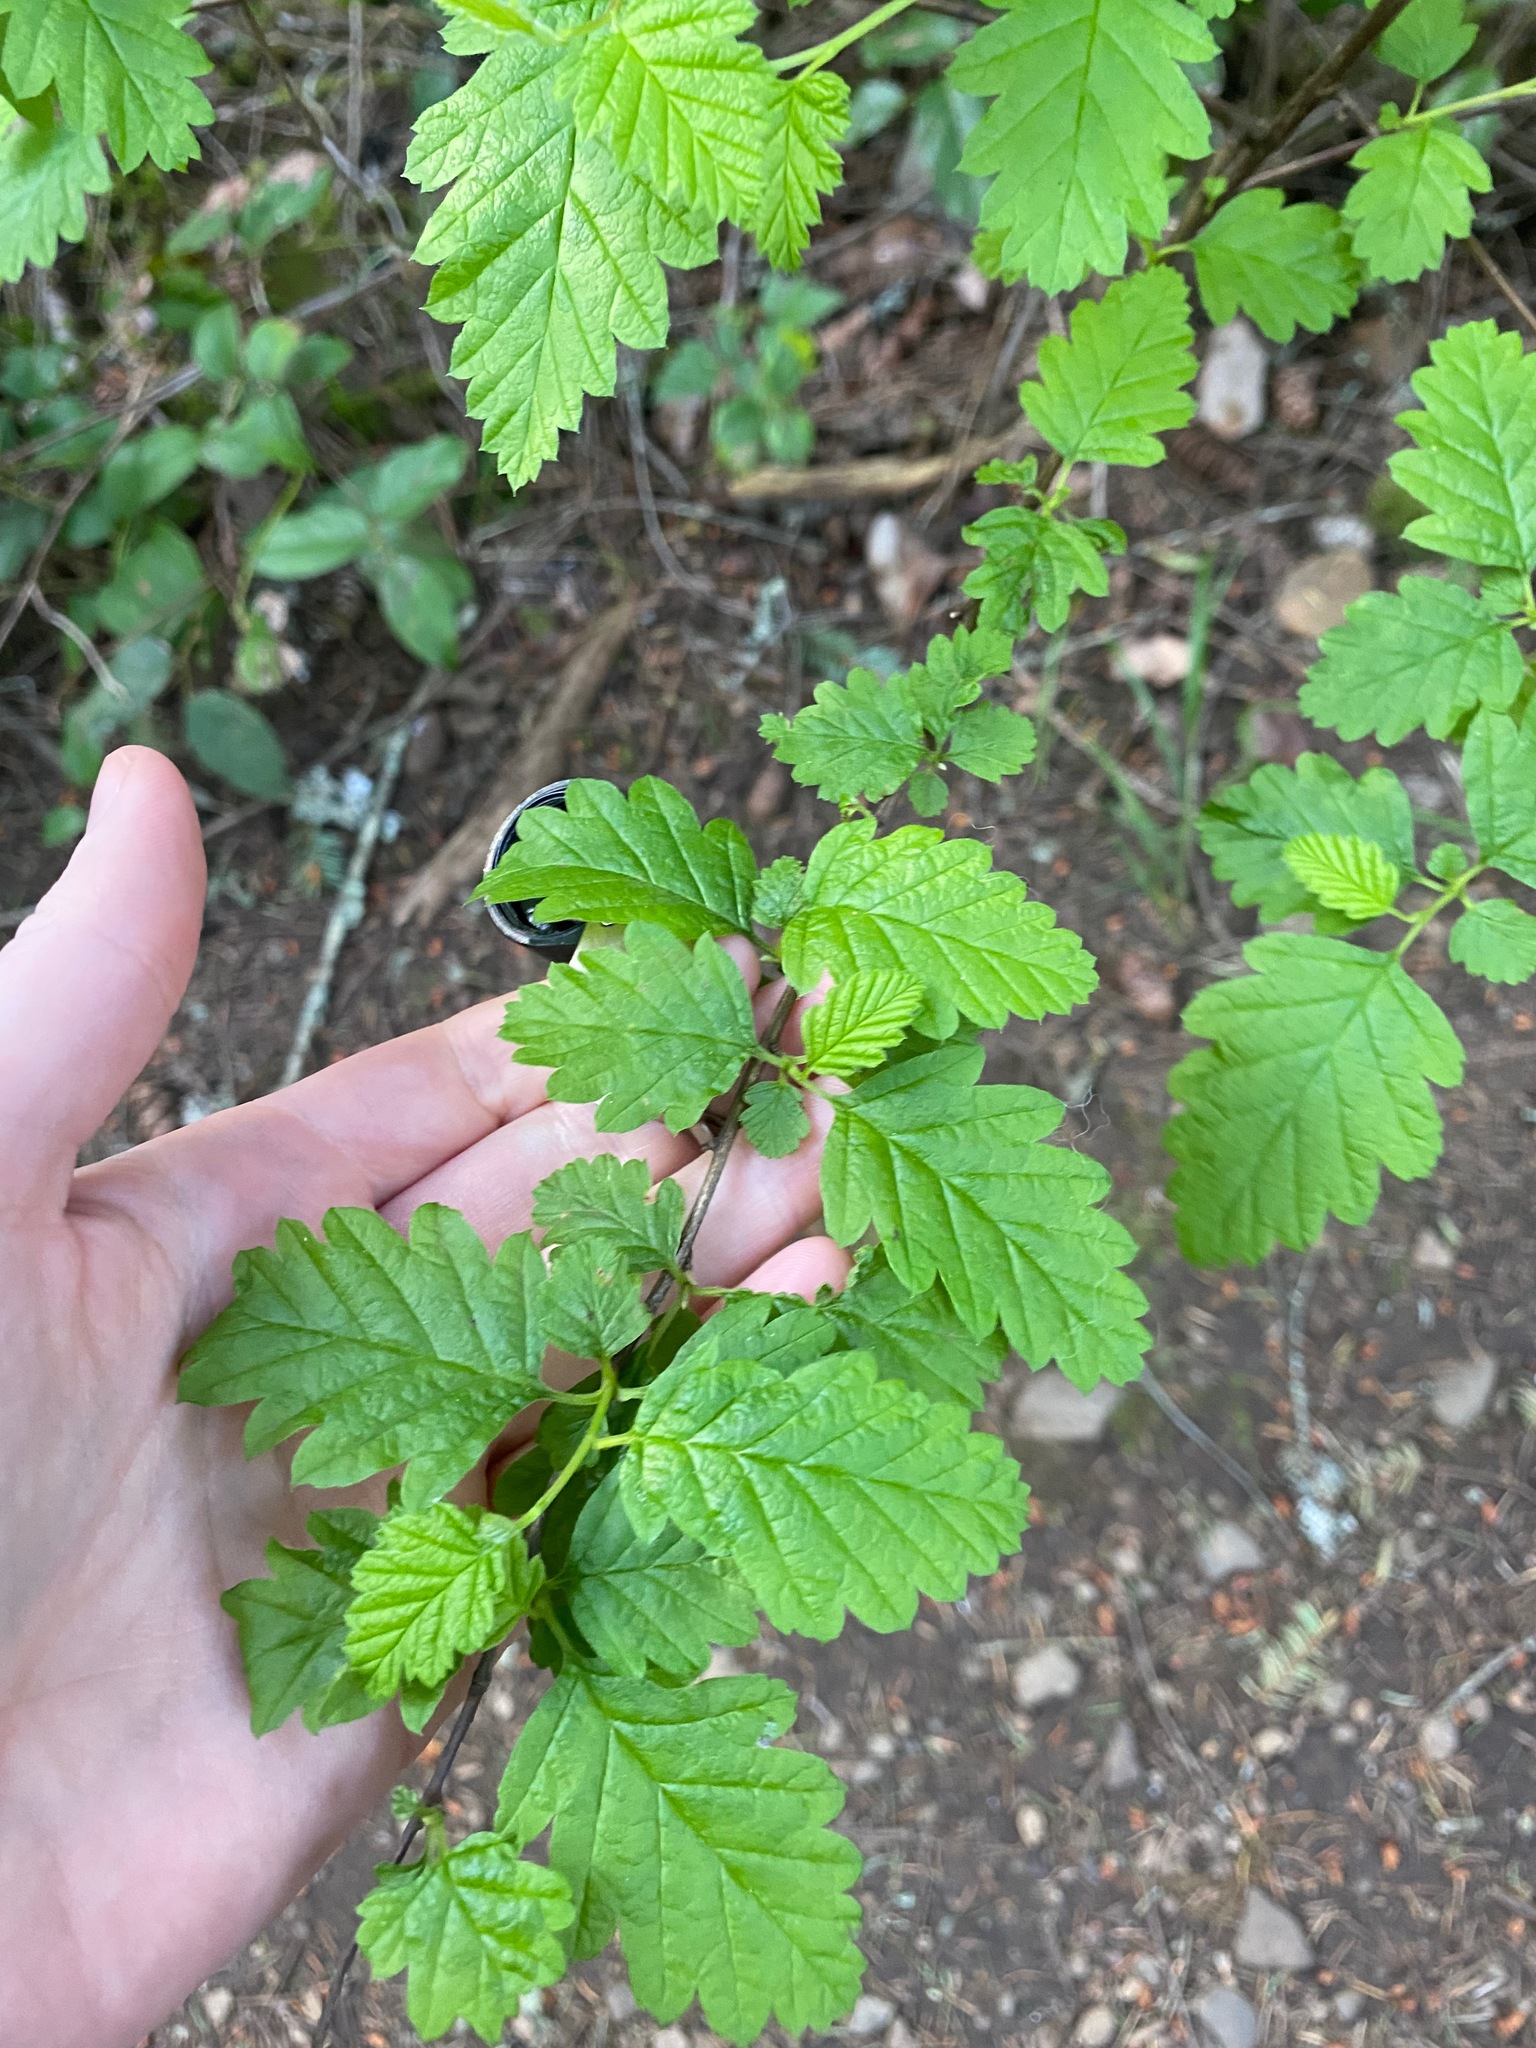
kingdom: Plantae
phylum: Tracheophyta
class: Magnoliopsida
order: Rosales
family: Rosaceae
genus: Holodiscus
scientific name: Holodiscus discolor
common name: Oceanspray
